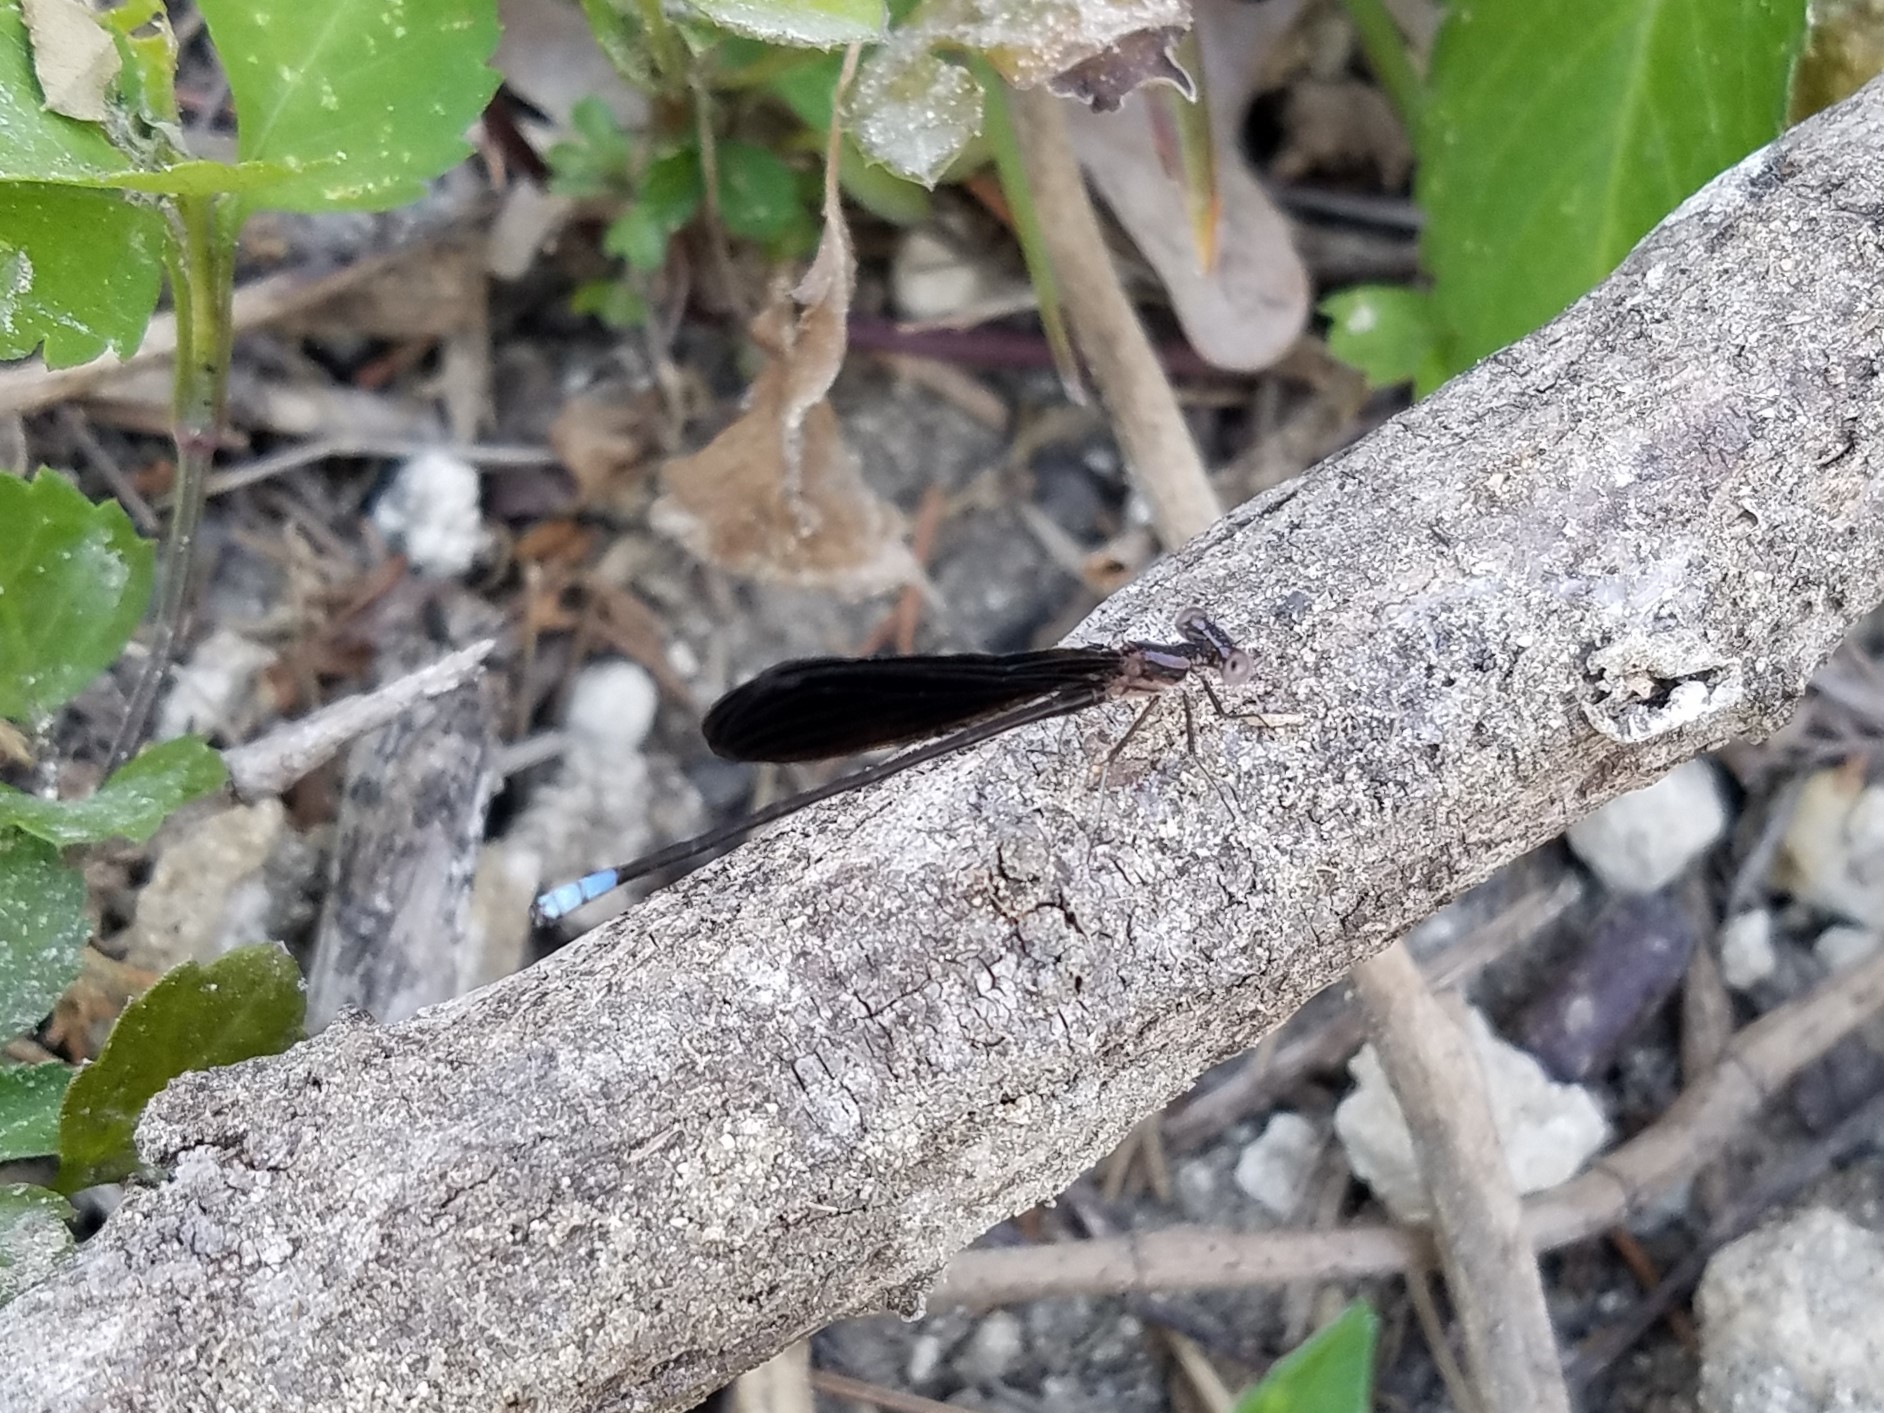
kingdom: Animalia
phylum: Arthropoda
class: Insecta
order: Odonata
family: Coenagrionidae
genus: Argia
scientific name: Argia fumipennis
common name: Variable dancer
